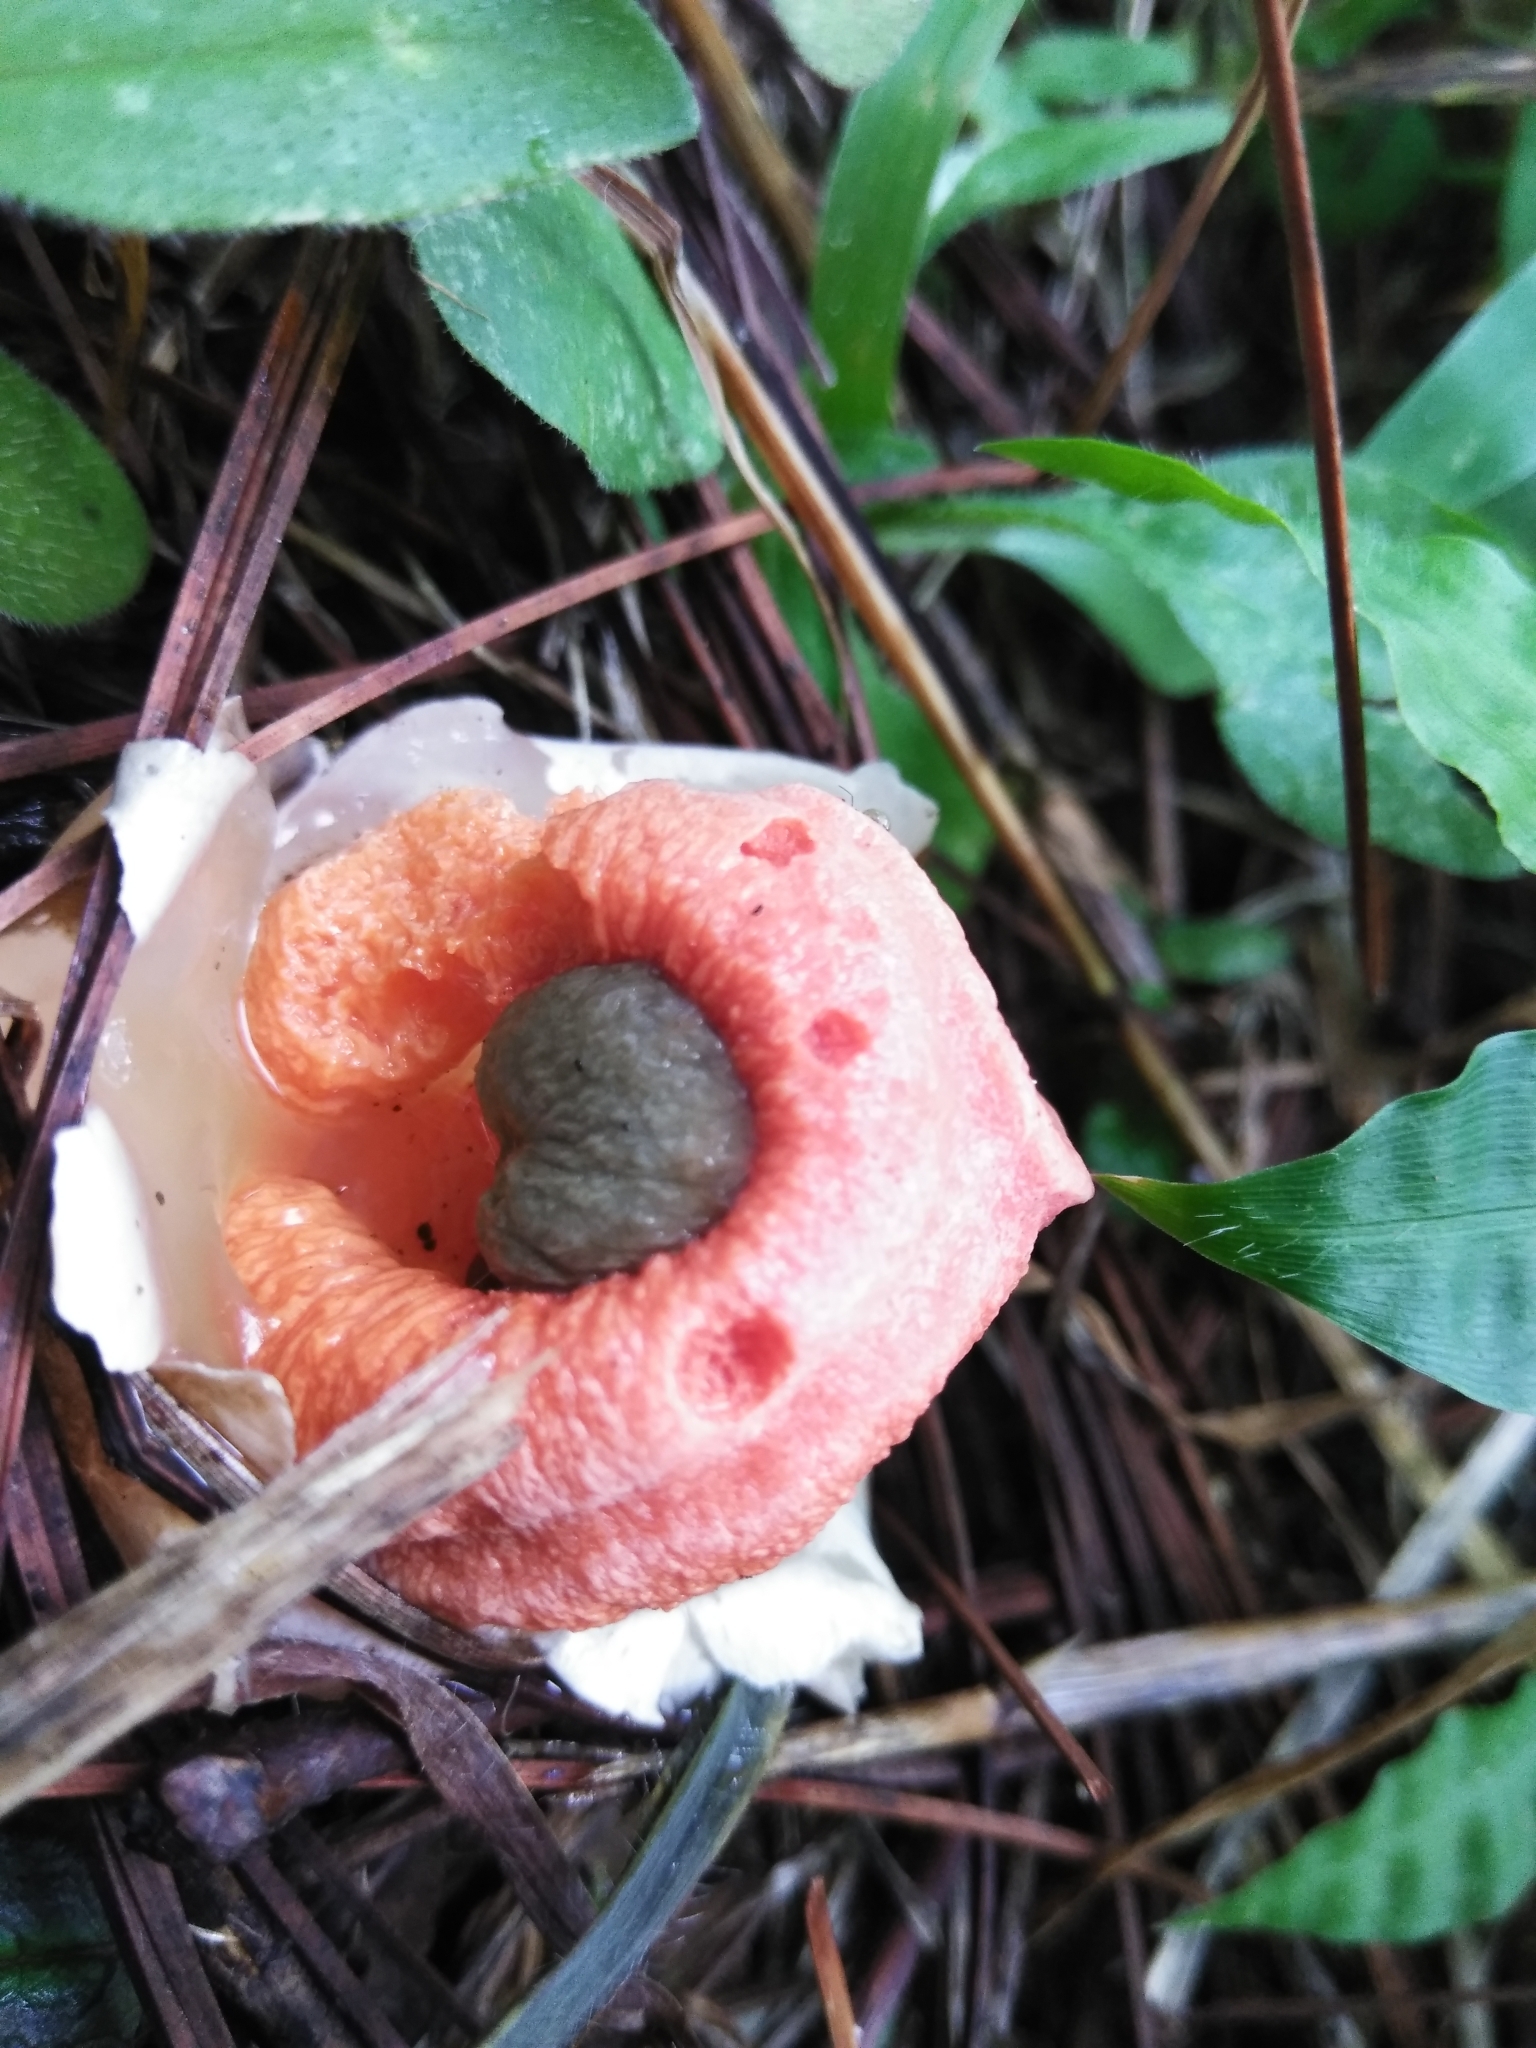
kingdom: Fungi
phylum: Basidiomycota
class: Agaricomycetes
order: Phallales
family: Phallaceae
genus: Clathrus
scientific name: Clathrus columnatus
